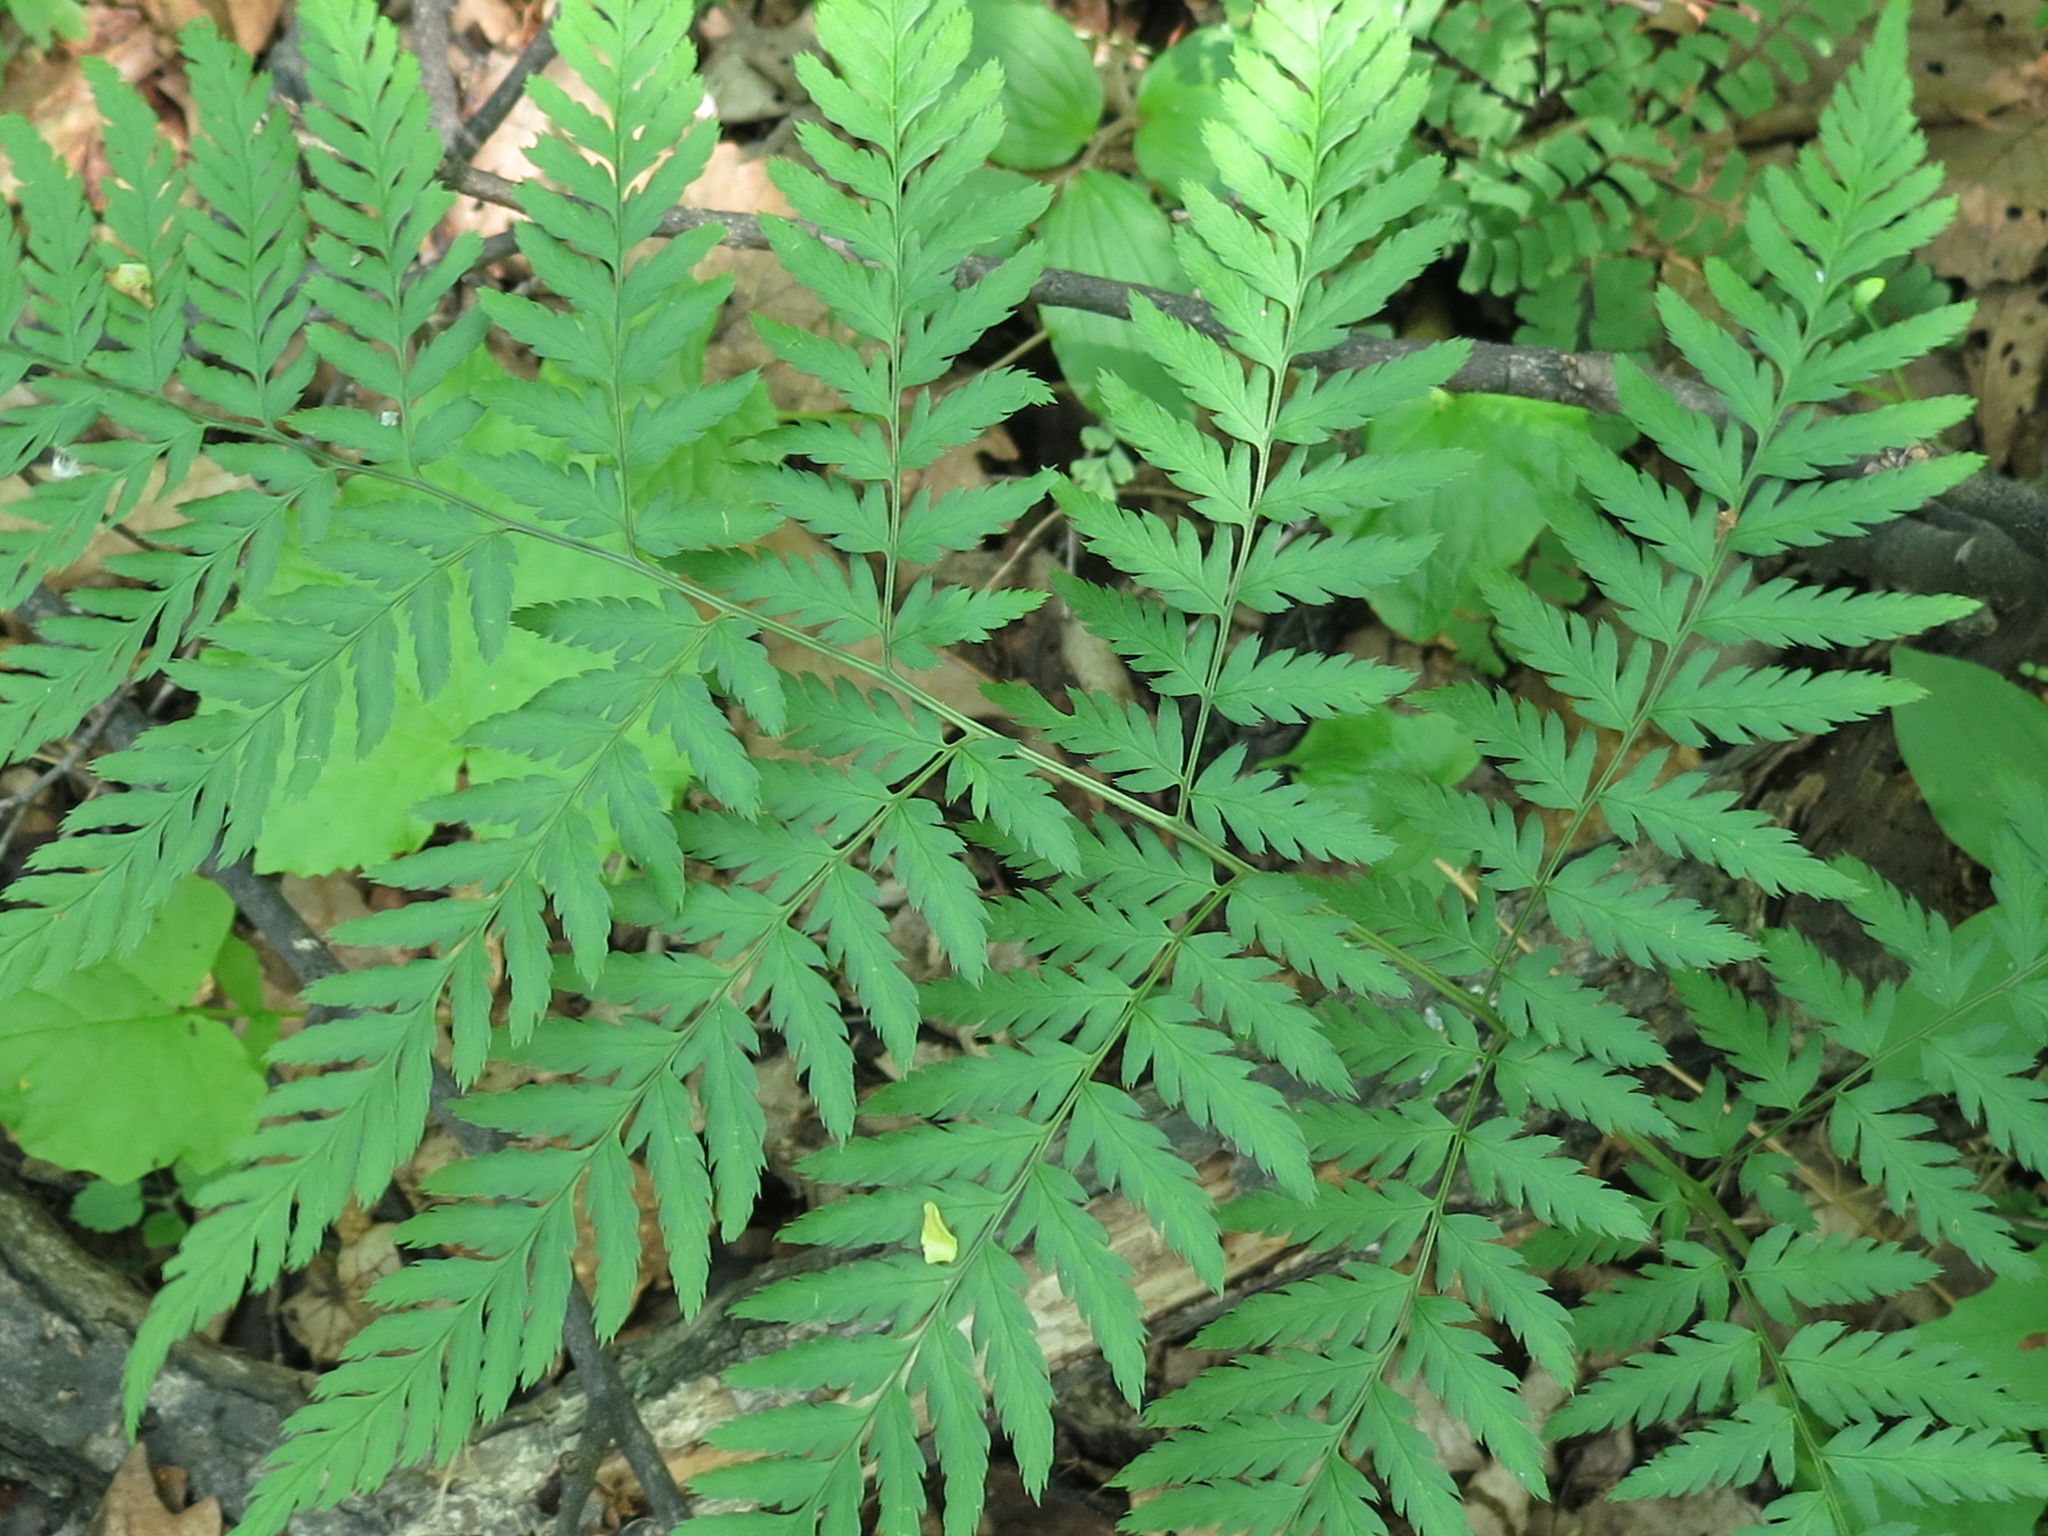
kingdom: Plantae
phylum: Tracheophyta
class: Polypodiopsida
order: Polypodiales
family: Dryopteridaceae
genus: Dryopteris
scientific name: Dryopteris goeringiana
